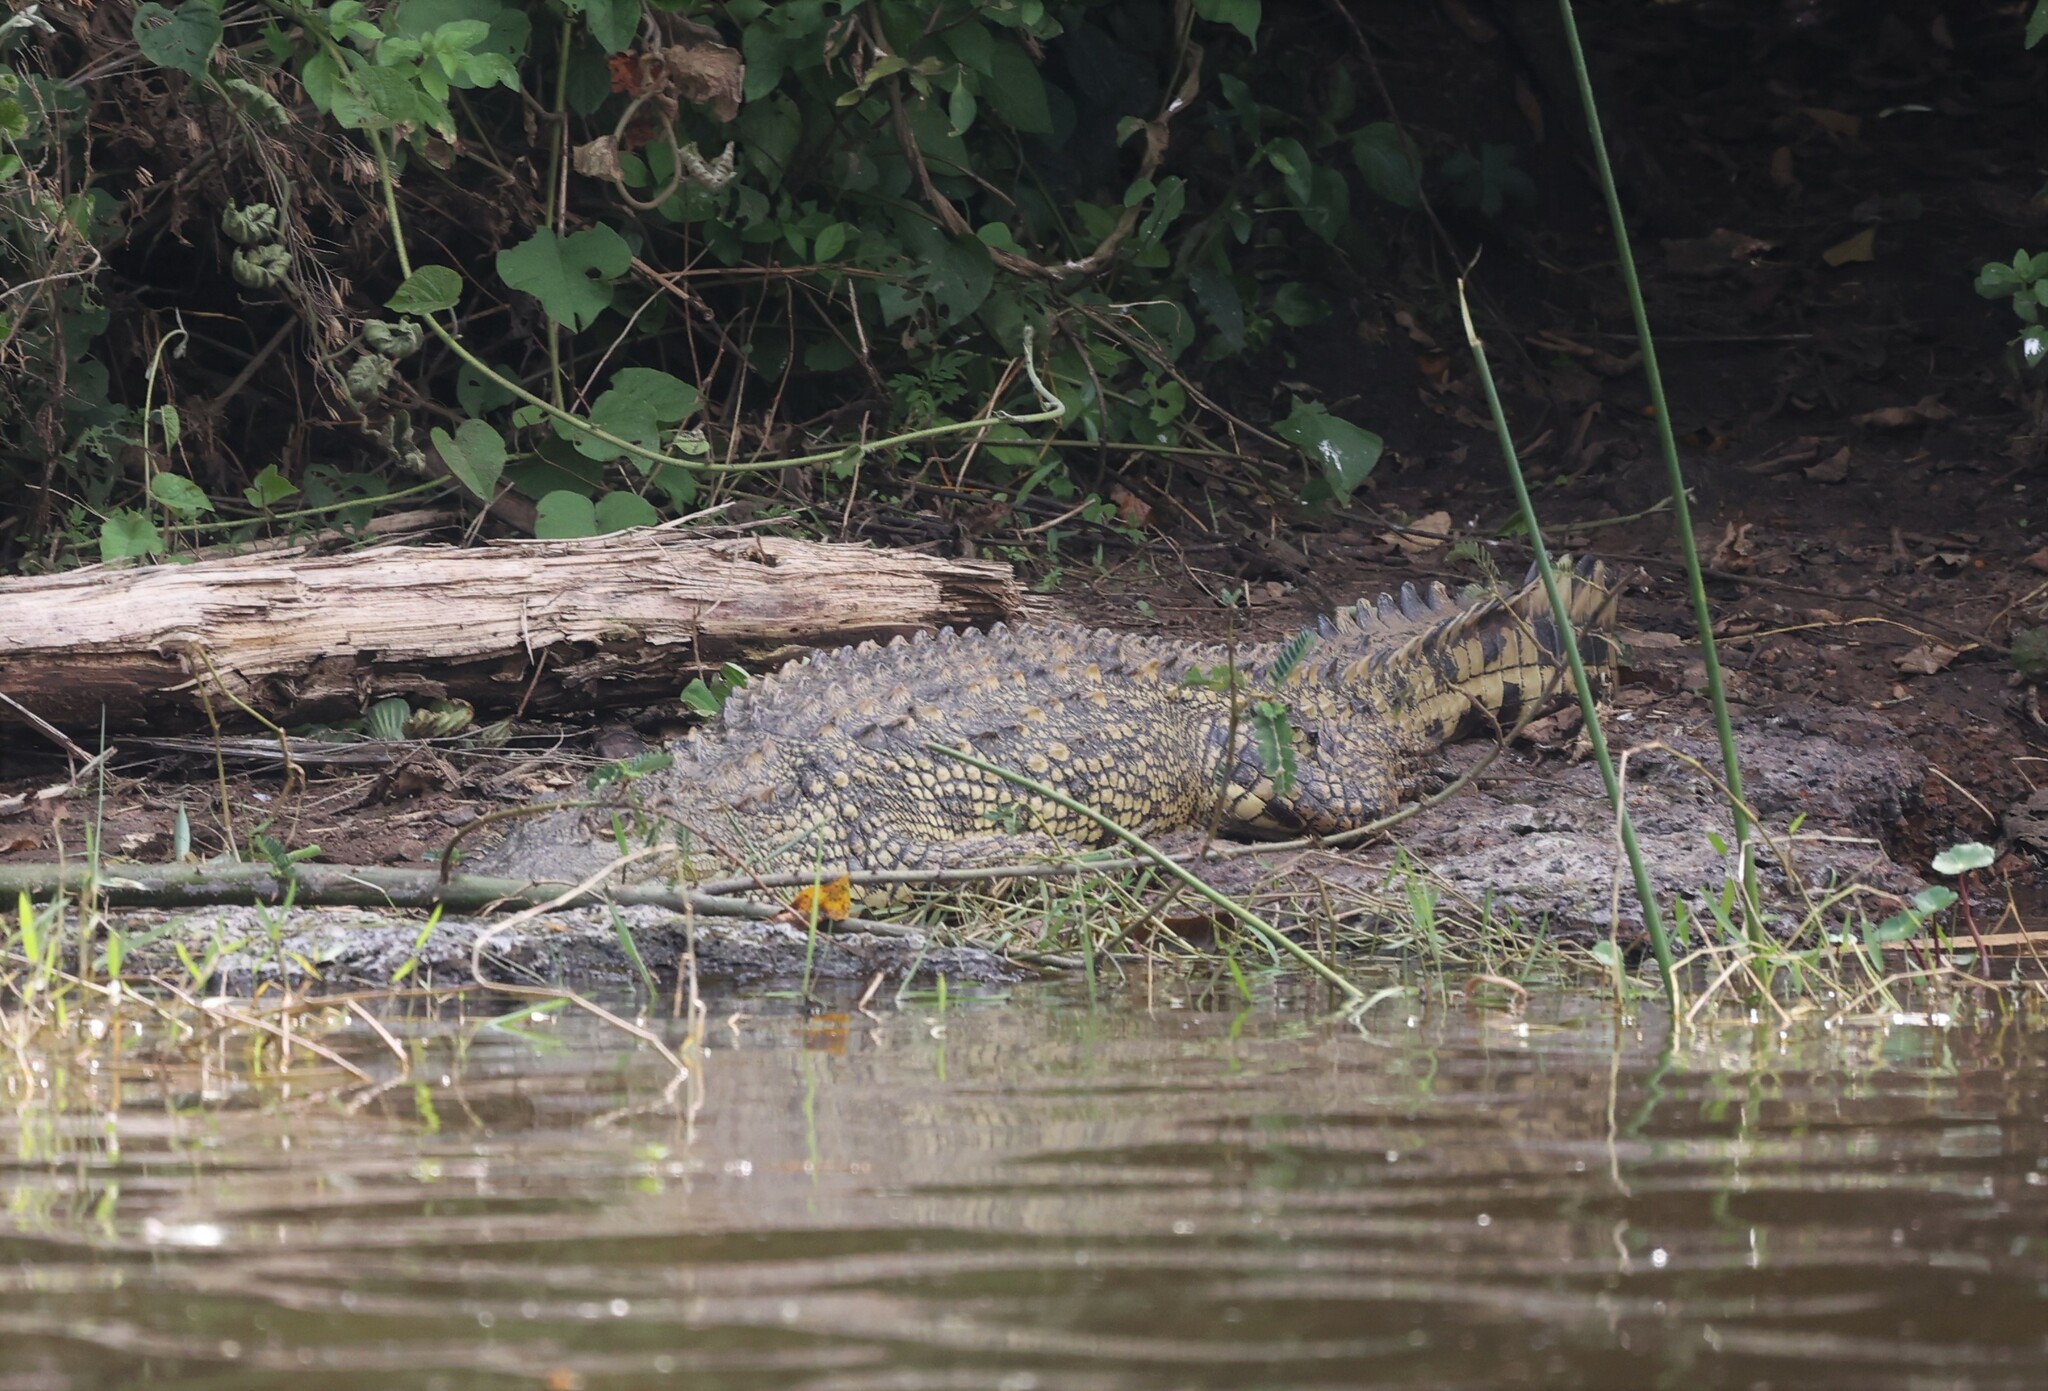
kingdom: Animalia
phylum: Chordata
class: Crocodylia
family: Crocodylidae
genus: Crocodylus
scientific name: Crocodylus niloticus
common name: Nile crocodile
